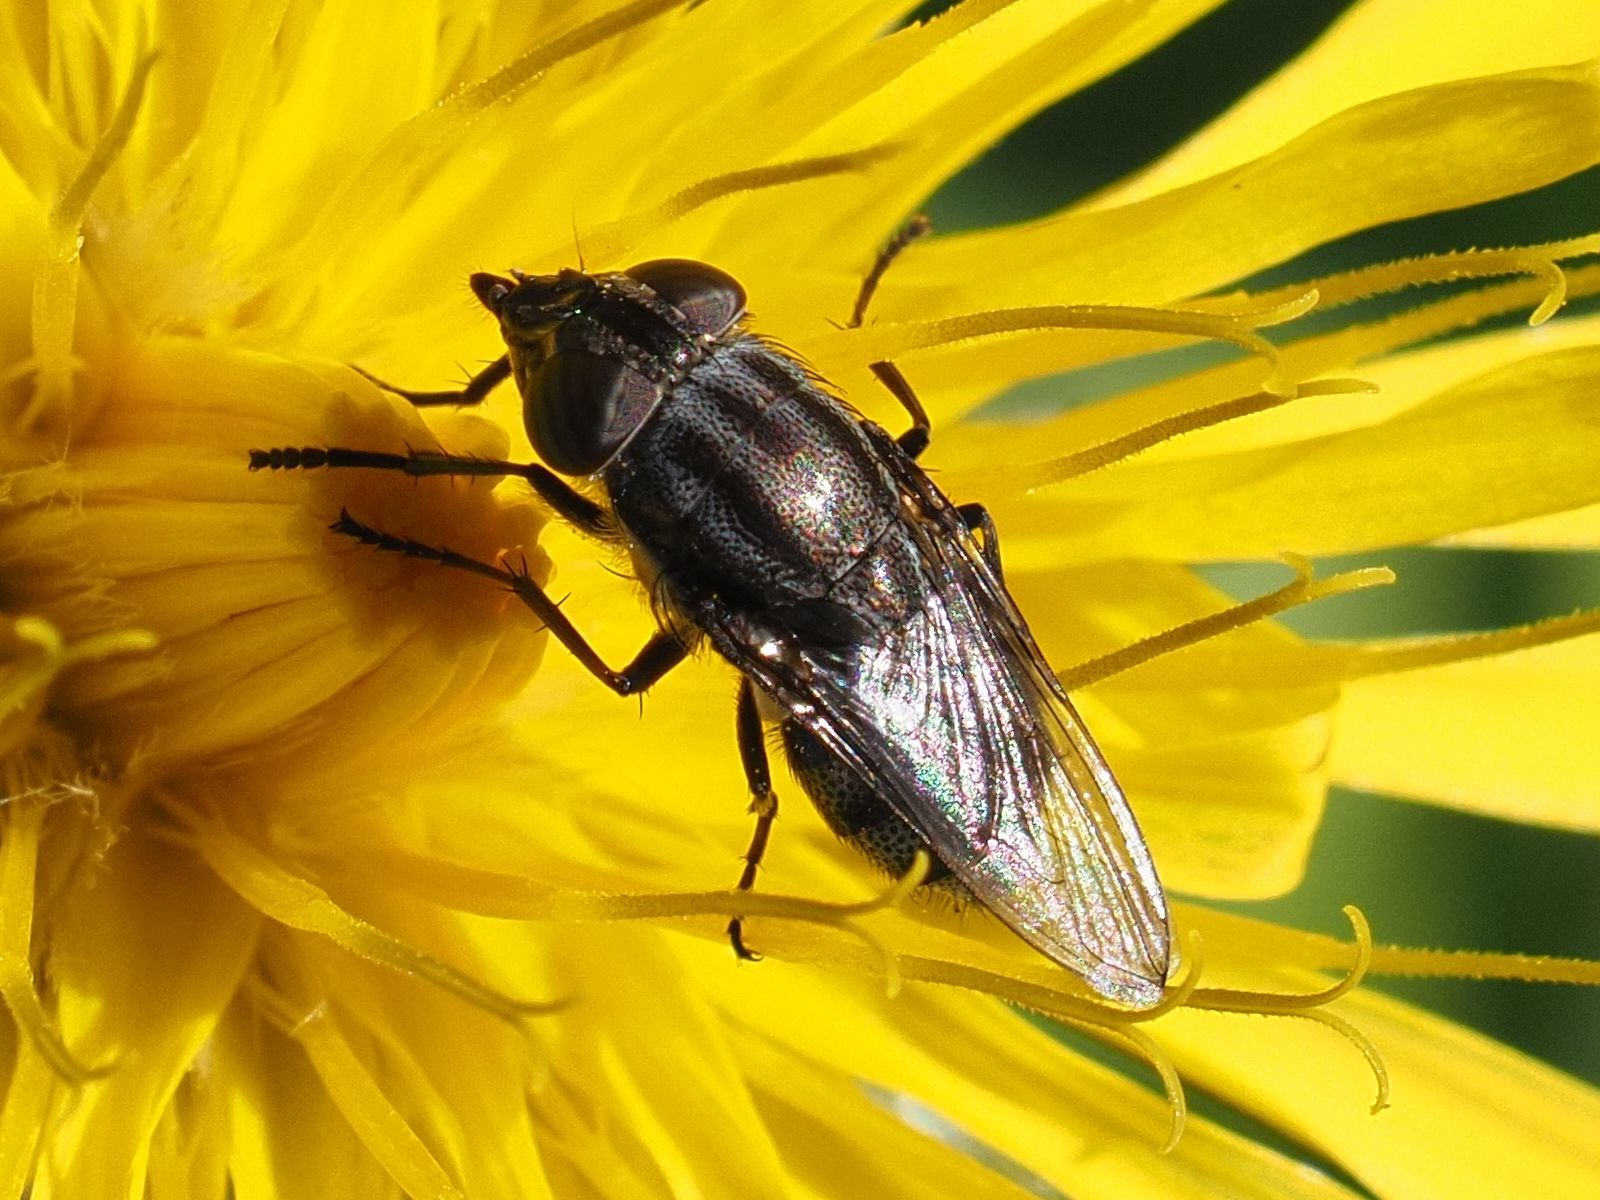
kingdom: Animalia
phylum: Arthropoda
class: Insecta
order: Diptera
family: Calliphoridae
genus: Stomorhina
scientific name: Stomorhina lunata
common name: Locust blowfly
